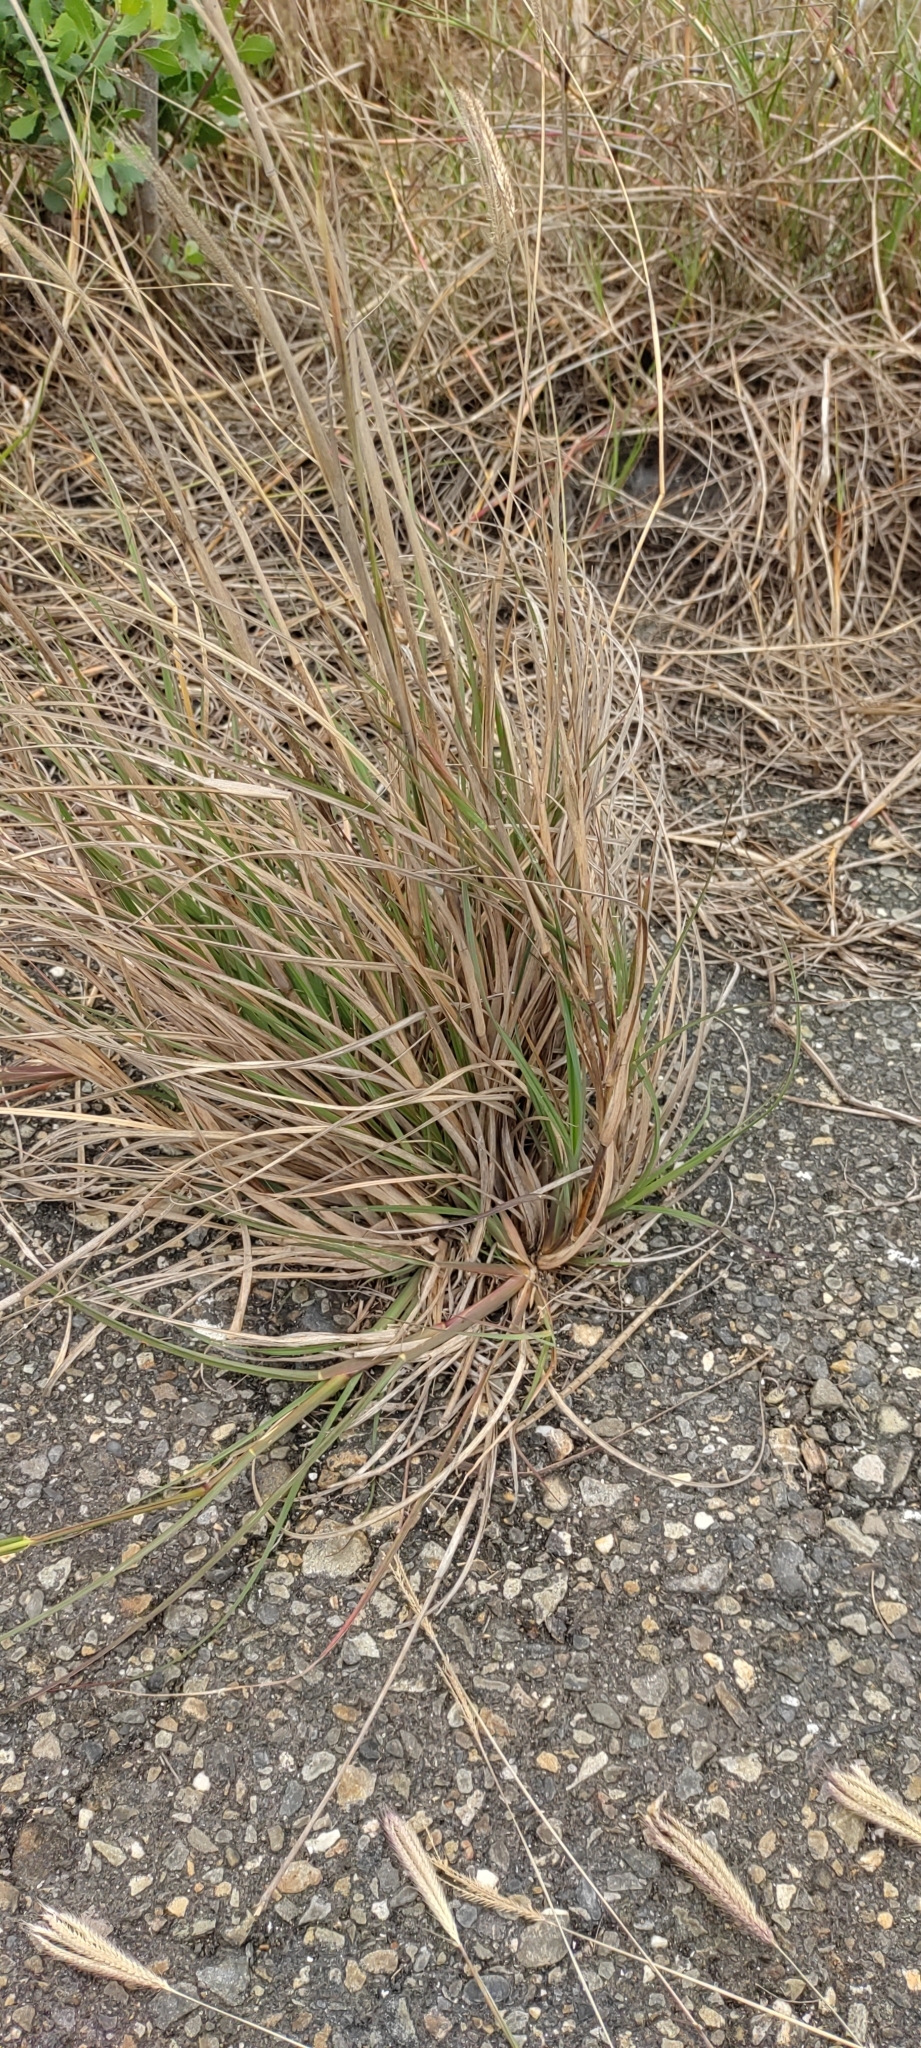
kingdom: Plantae
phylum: Tracheophyta
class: Liliopsida
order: Poales
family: Poaceae
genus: Chloris
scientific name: Chloris formosana
